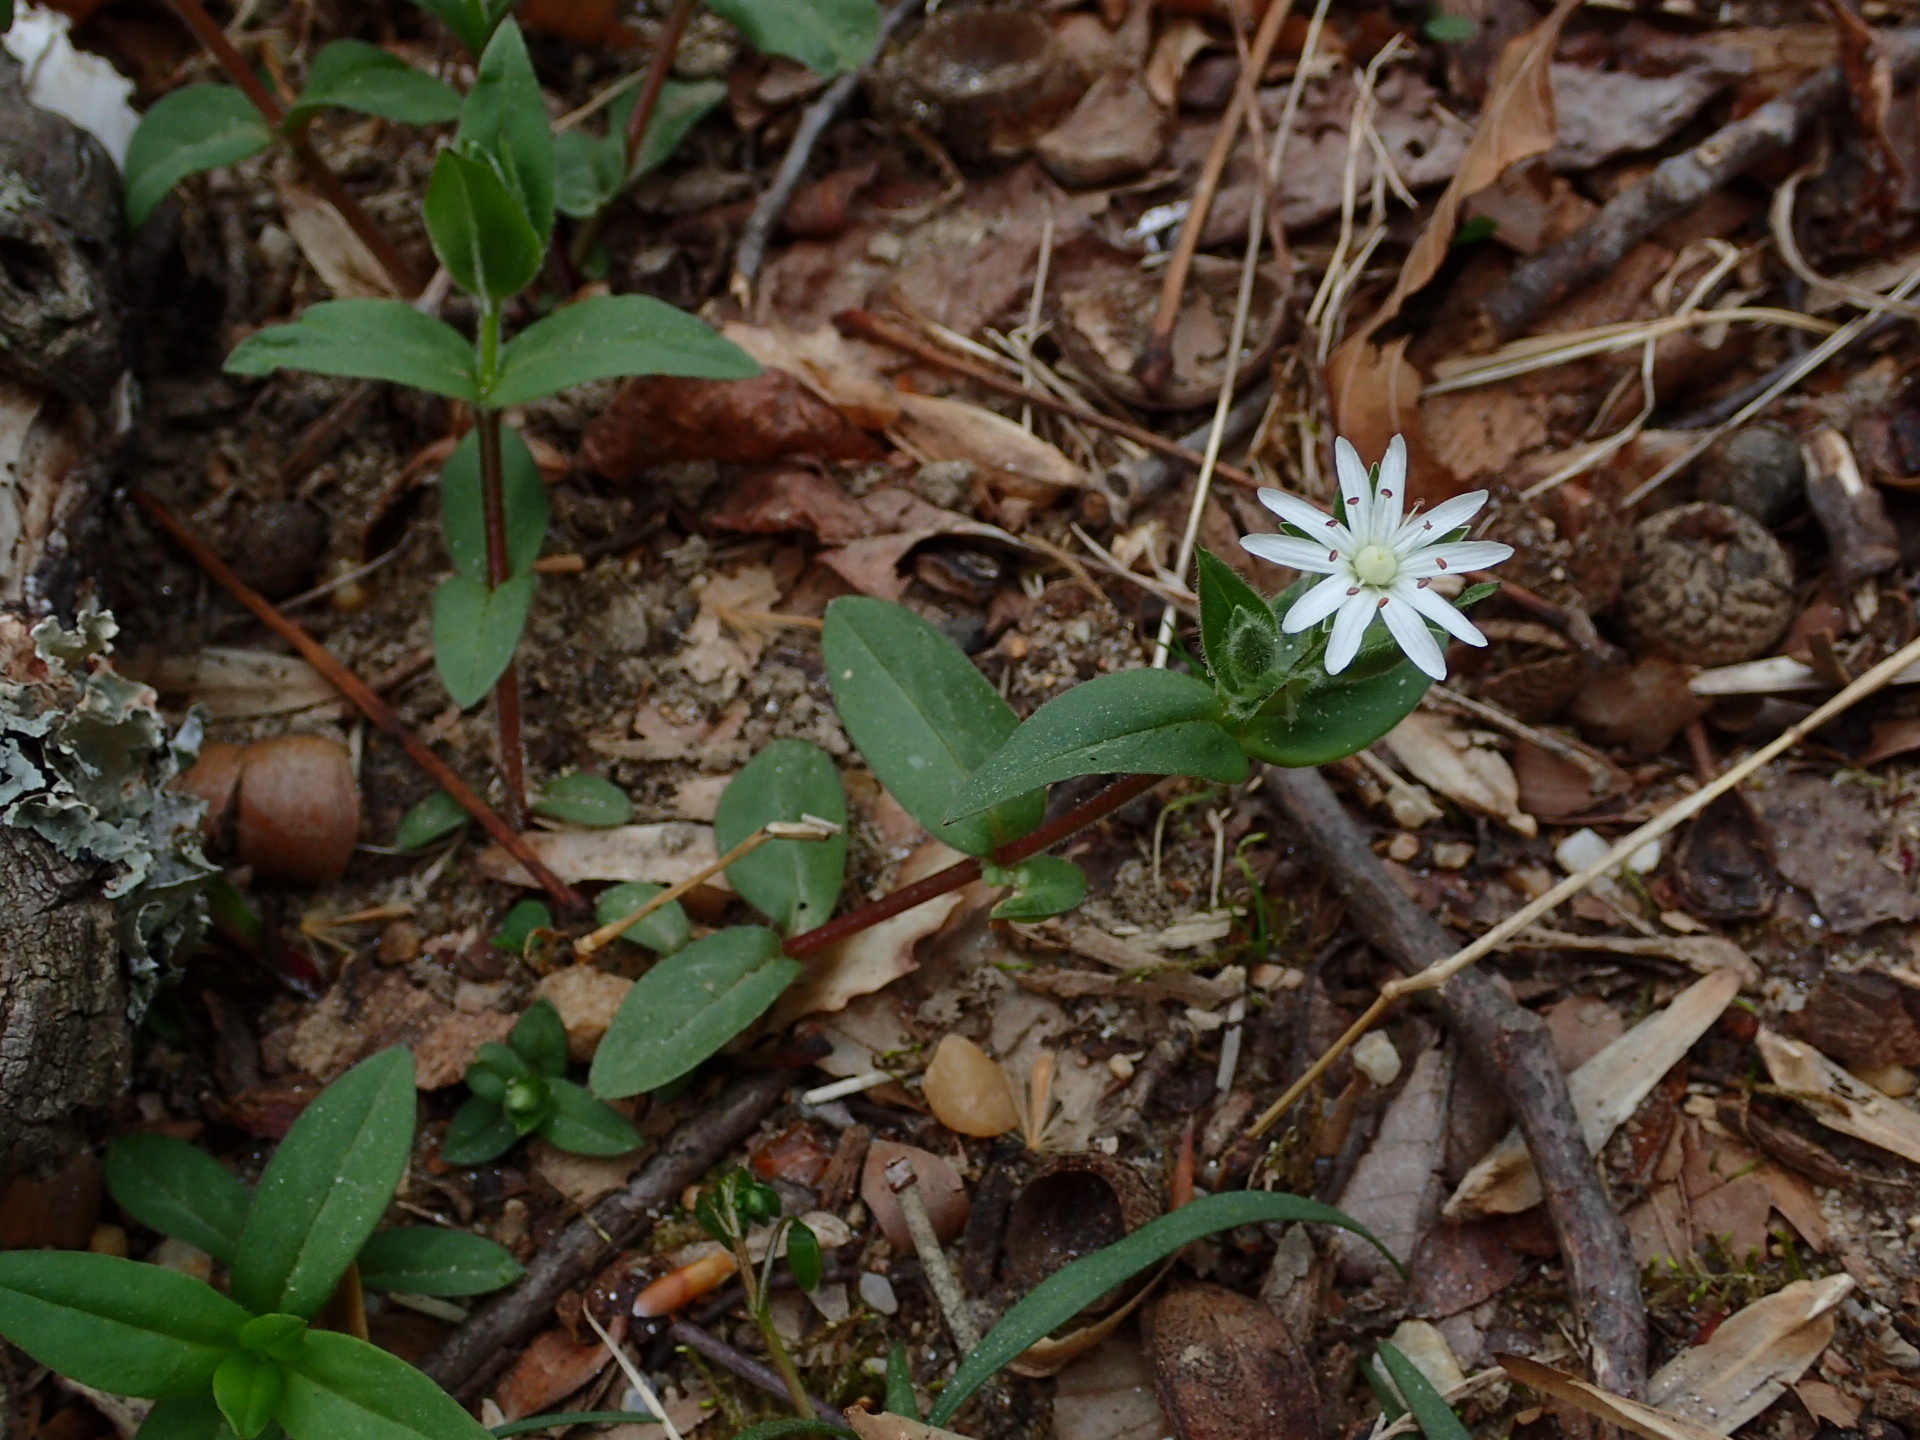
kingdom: Plantae
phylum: Tracheophyta
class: Magnoliopsida
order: Caryophyllales
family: Caryophyllaceae
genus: Stellaria
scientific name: Stellaria pubera
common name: Star chickweed
